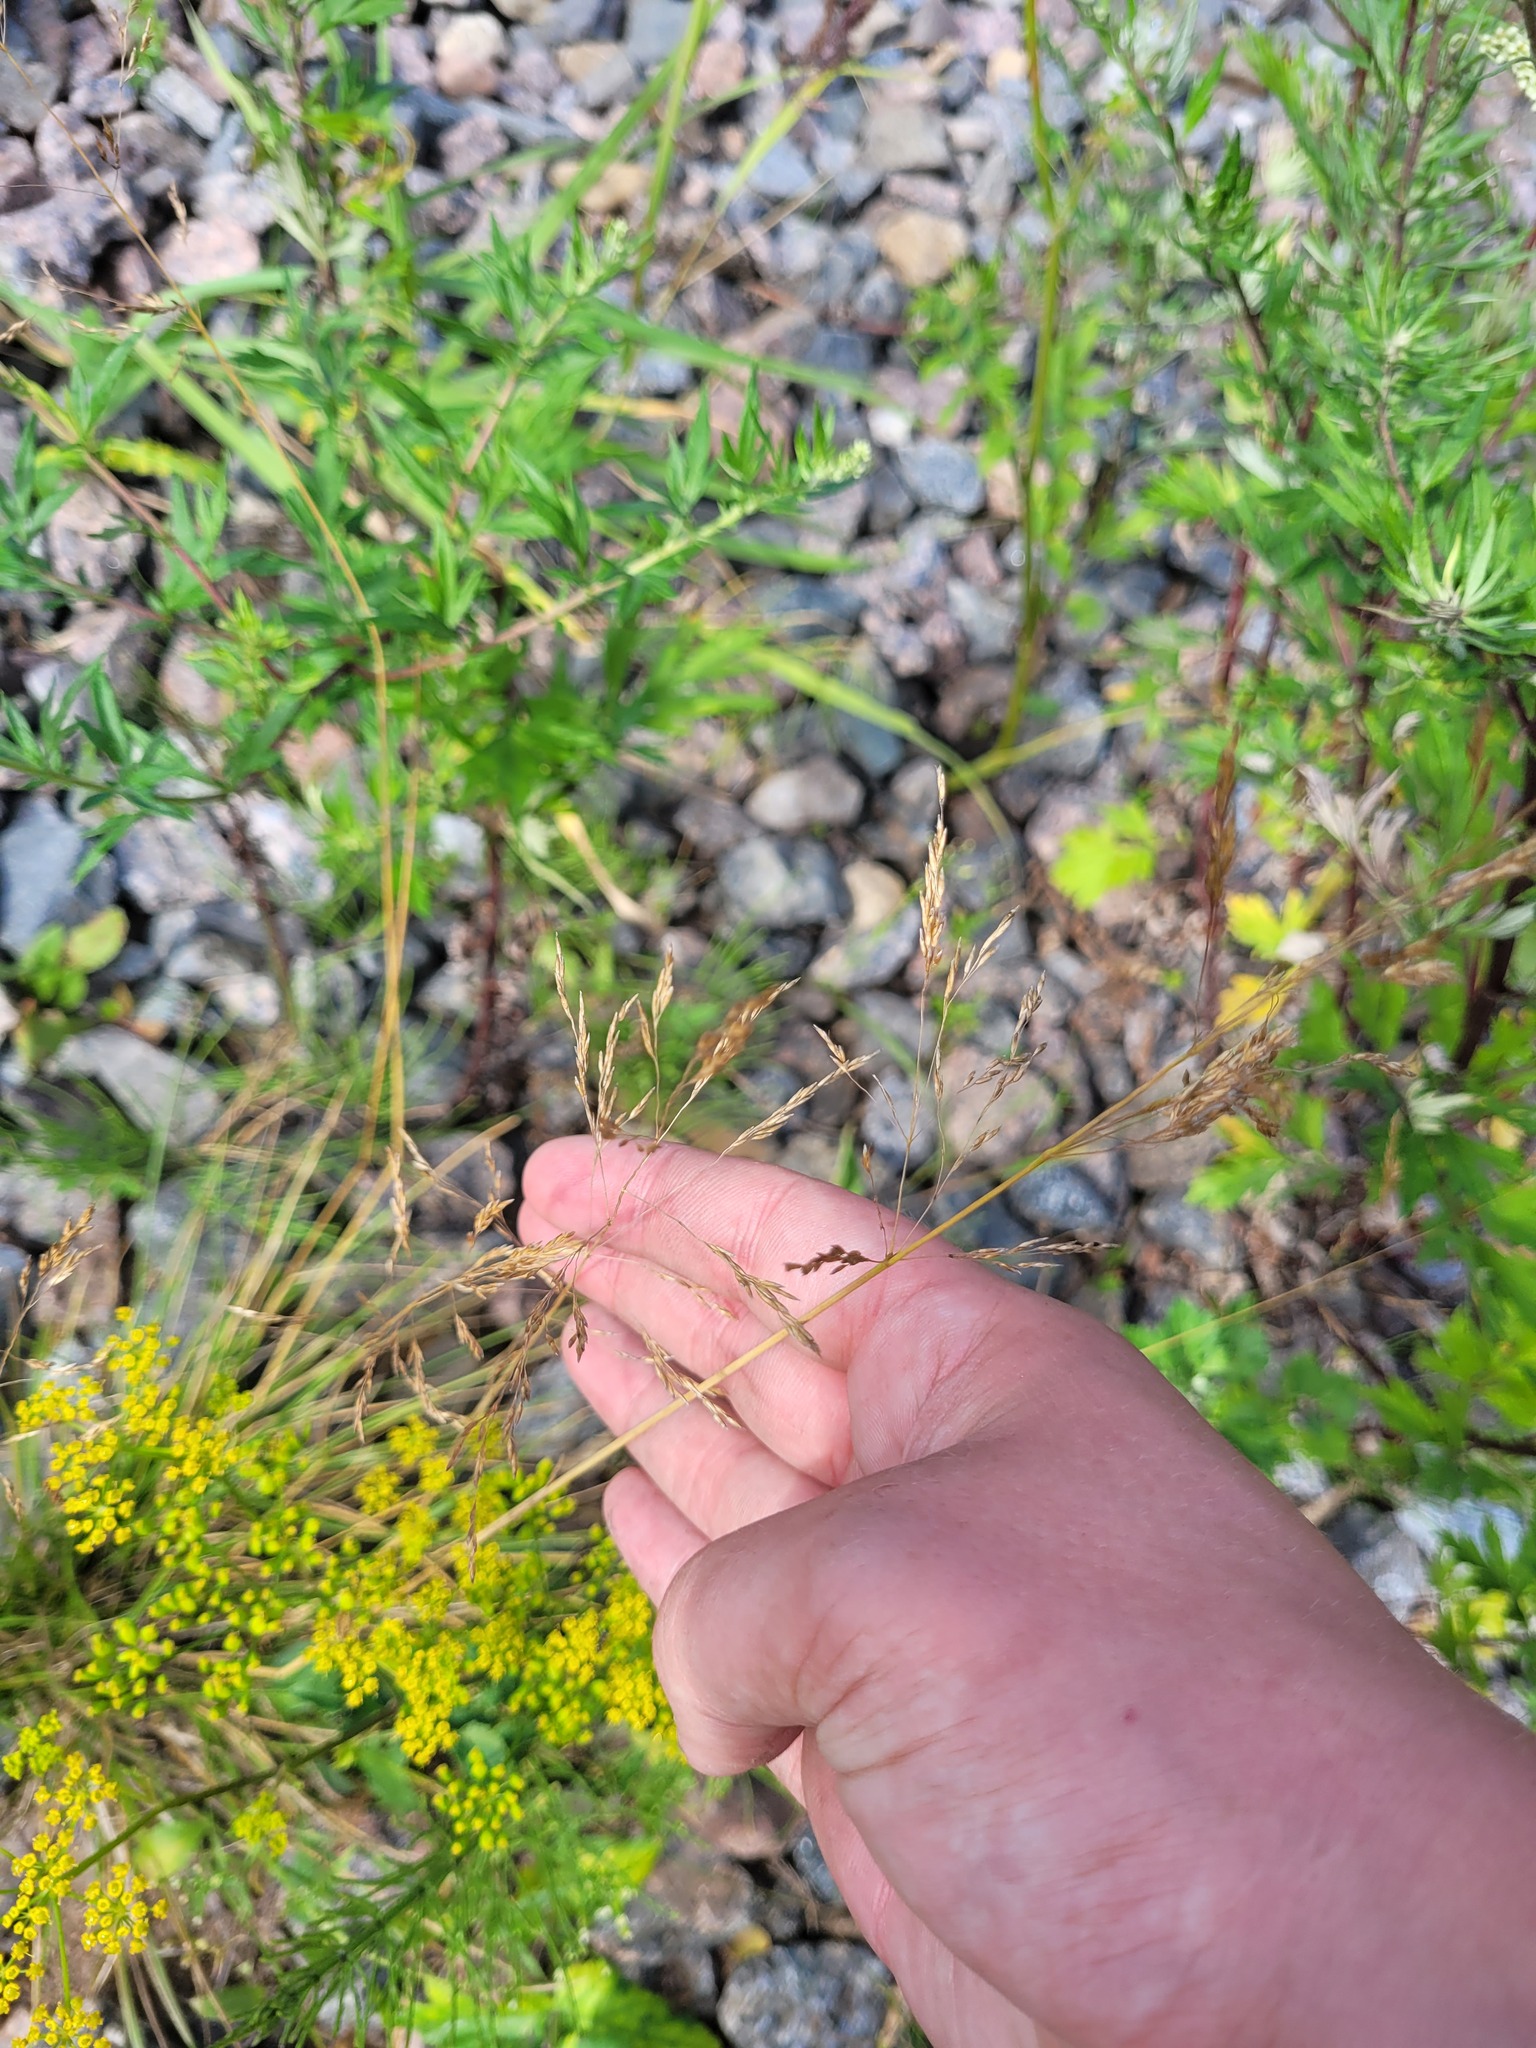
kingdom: Plantae
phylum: Tracheophyta
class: Liliopsida
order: Poales
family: Poaceae
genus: Deschampsia
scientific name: Deschampsia cespitosa
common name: Tufted hair-grass
